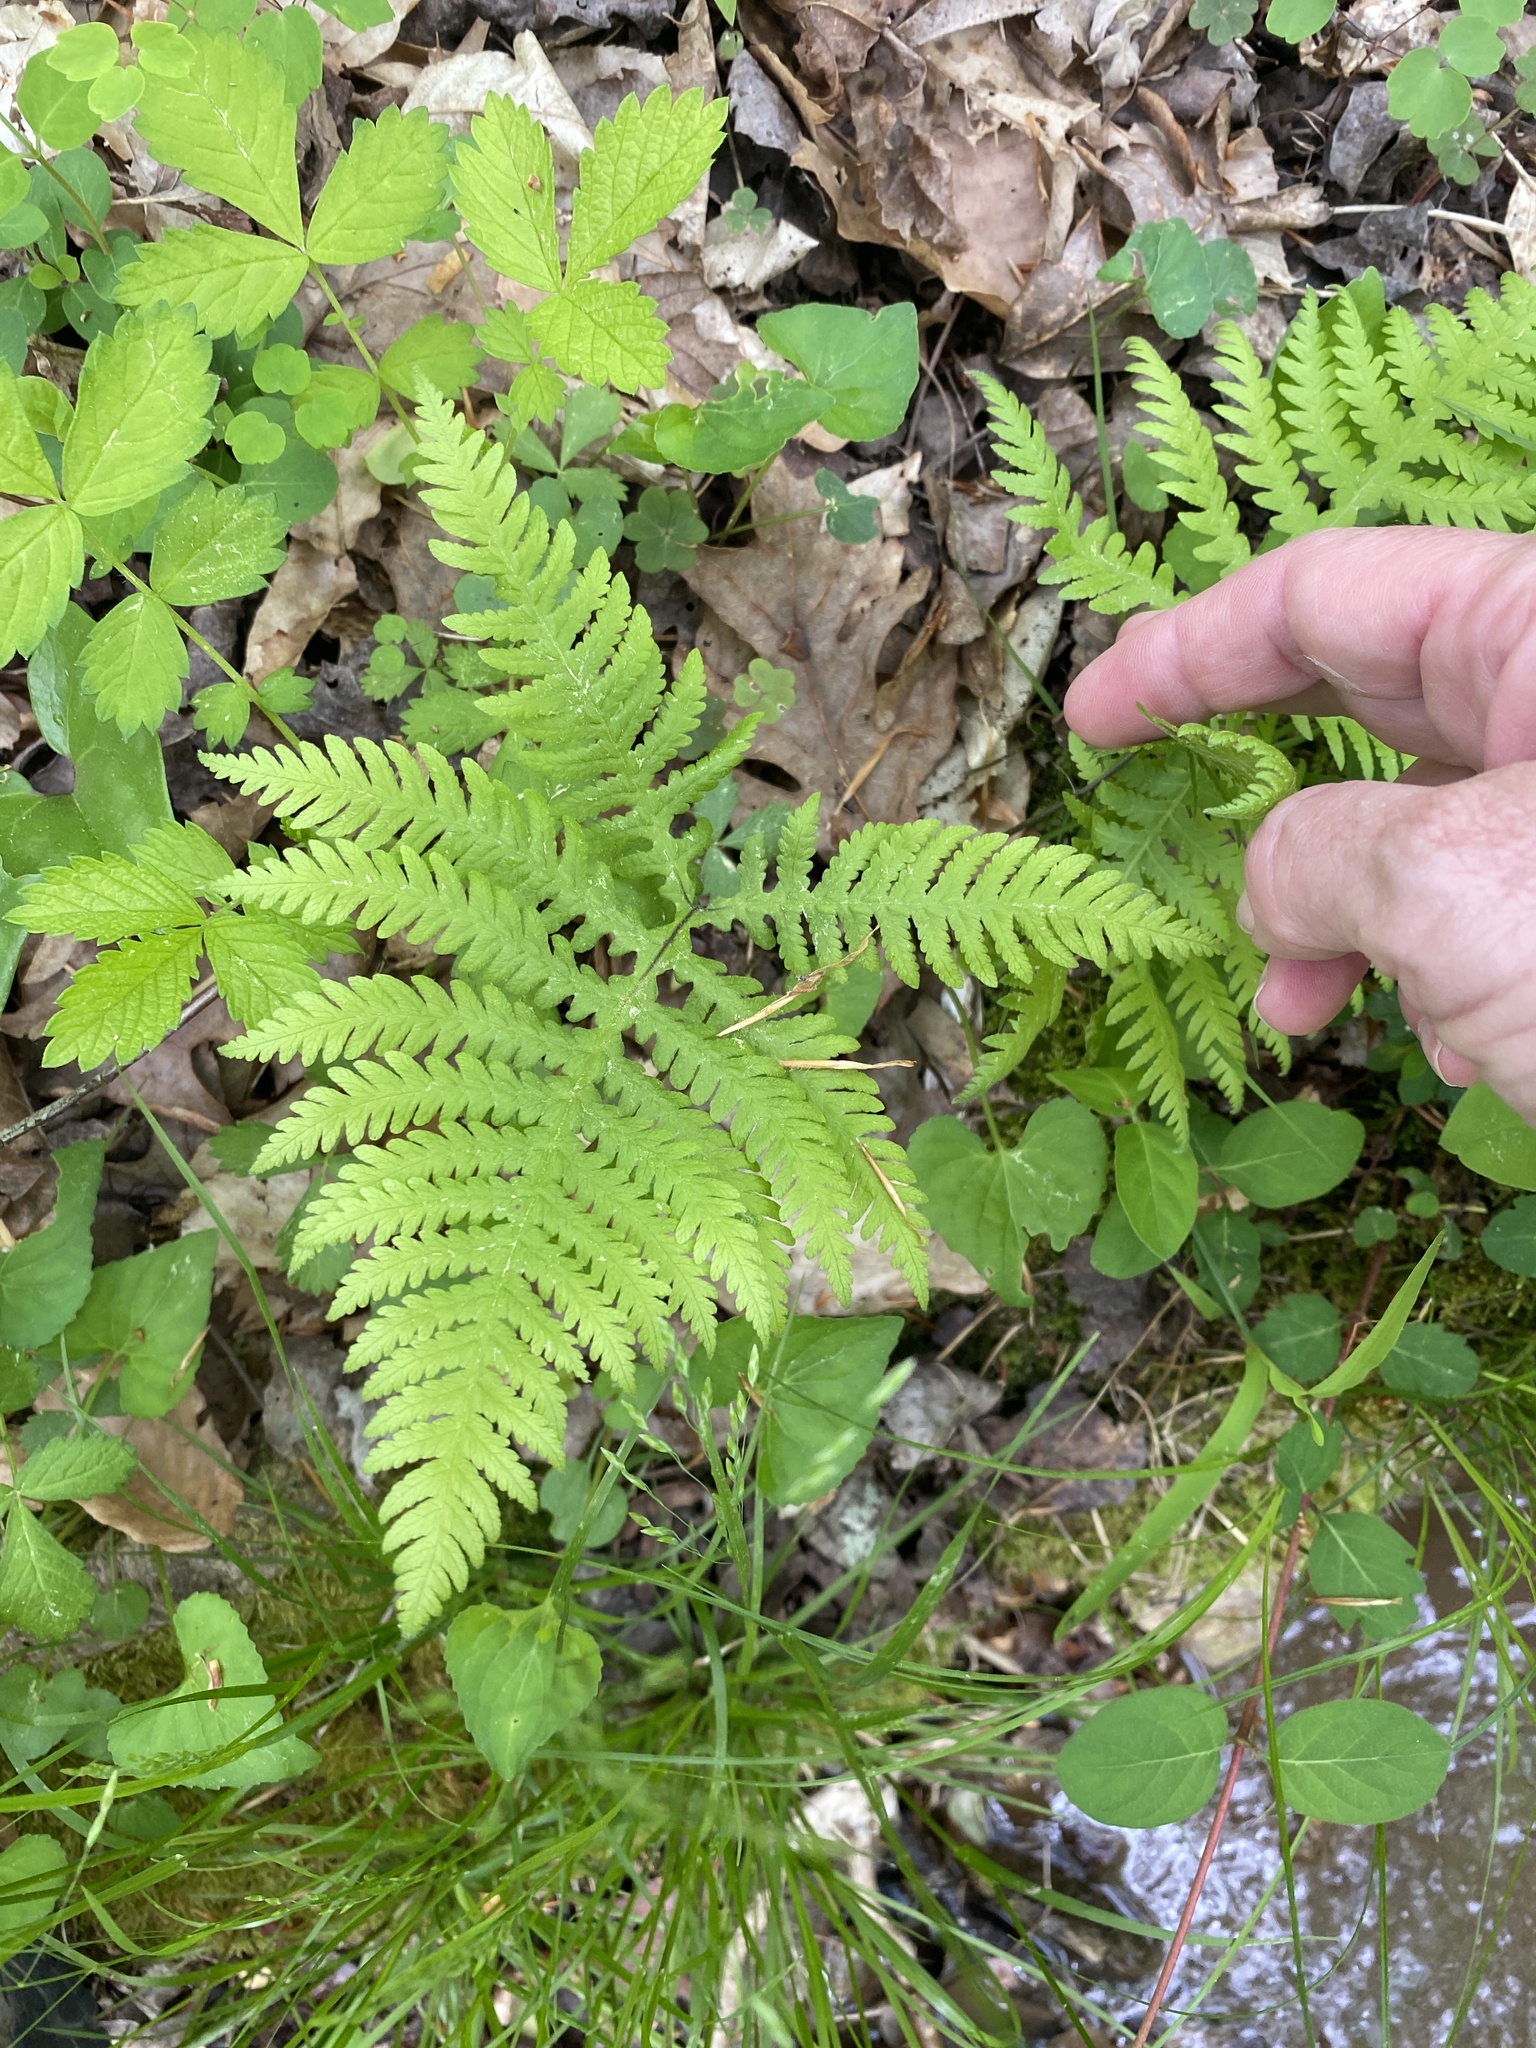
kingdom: Plantae
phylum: Tracheophyta
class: Polypodiopsida
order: Polypodiales
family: Thelypteridaceae
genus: Phegopteris
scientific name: Phegopteris hexagonoptera
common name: Broad beech fern
